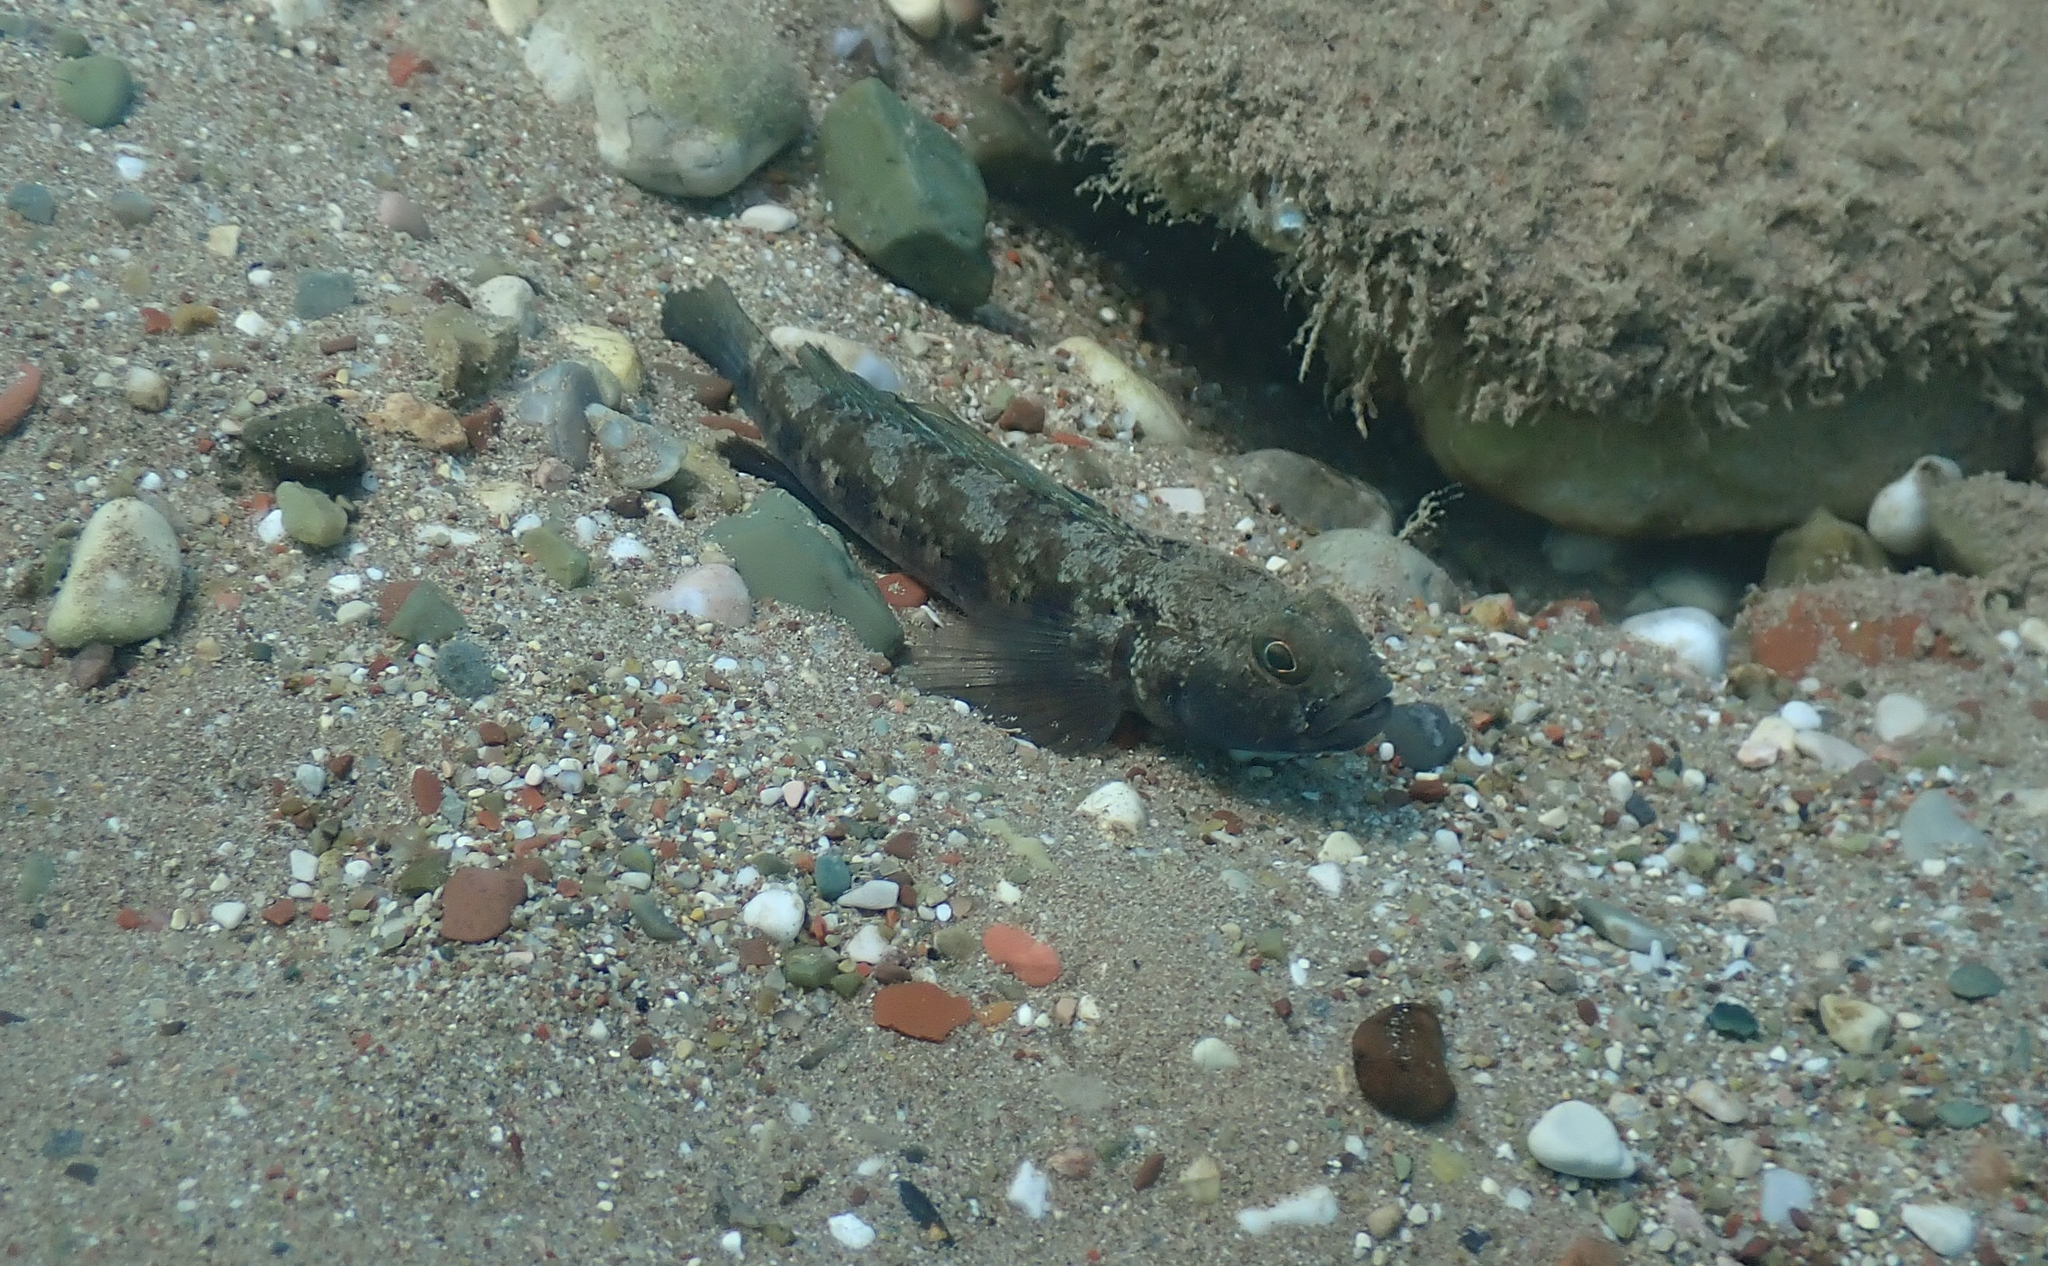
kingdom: Animalia
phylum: Chordata
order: Perciformes
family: Gobiidae
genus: Gobius
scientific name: Gobius niger
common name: Black goby
